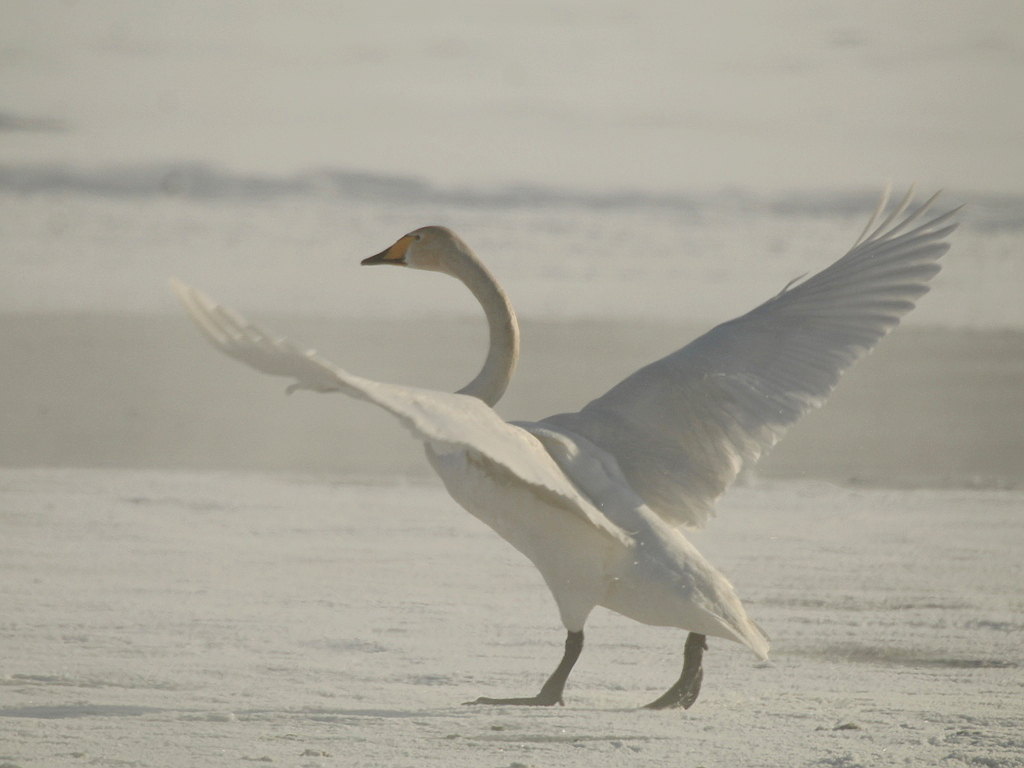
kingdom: Animalia
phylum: Chordata
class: Aves
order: Anseriformes
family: Anatidae
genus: Cygnus
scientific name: Cygnus cygnus
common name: Whooper swan
